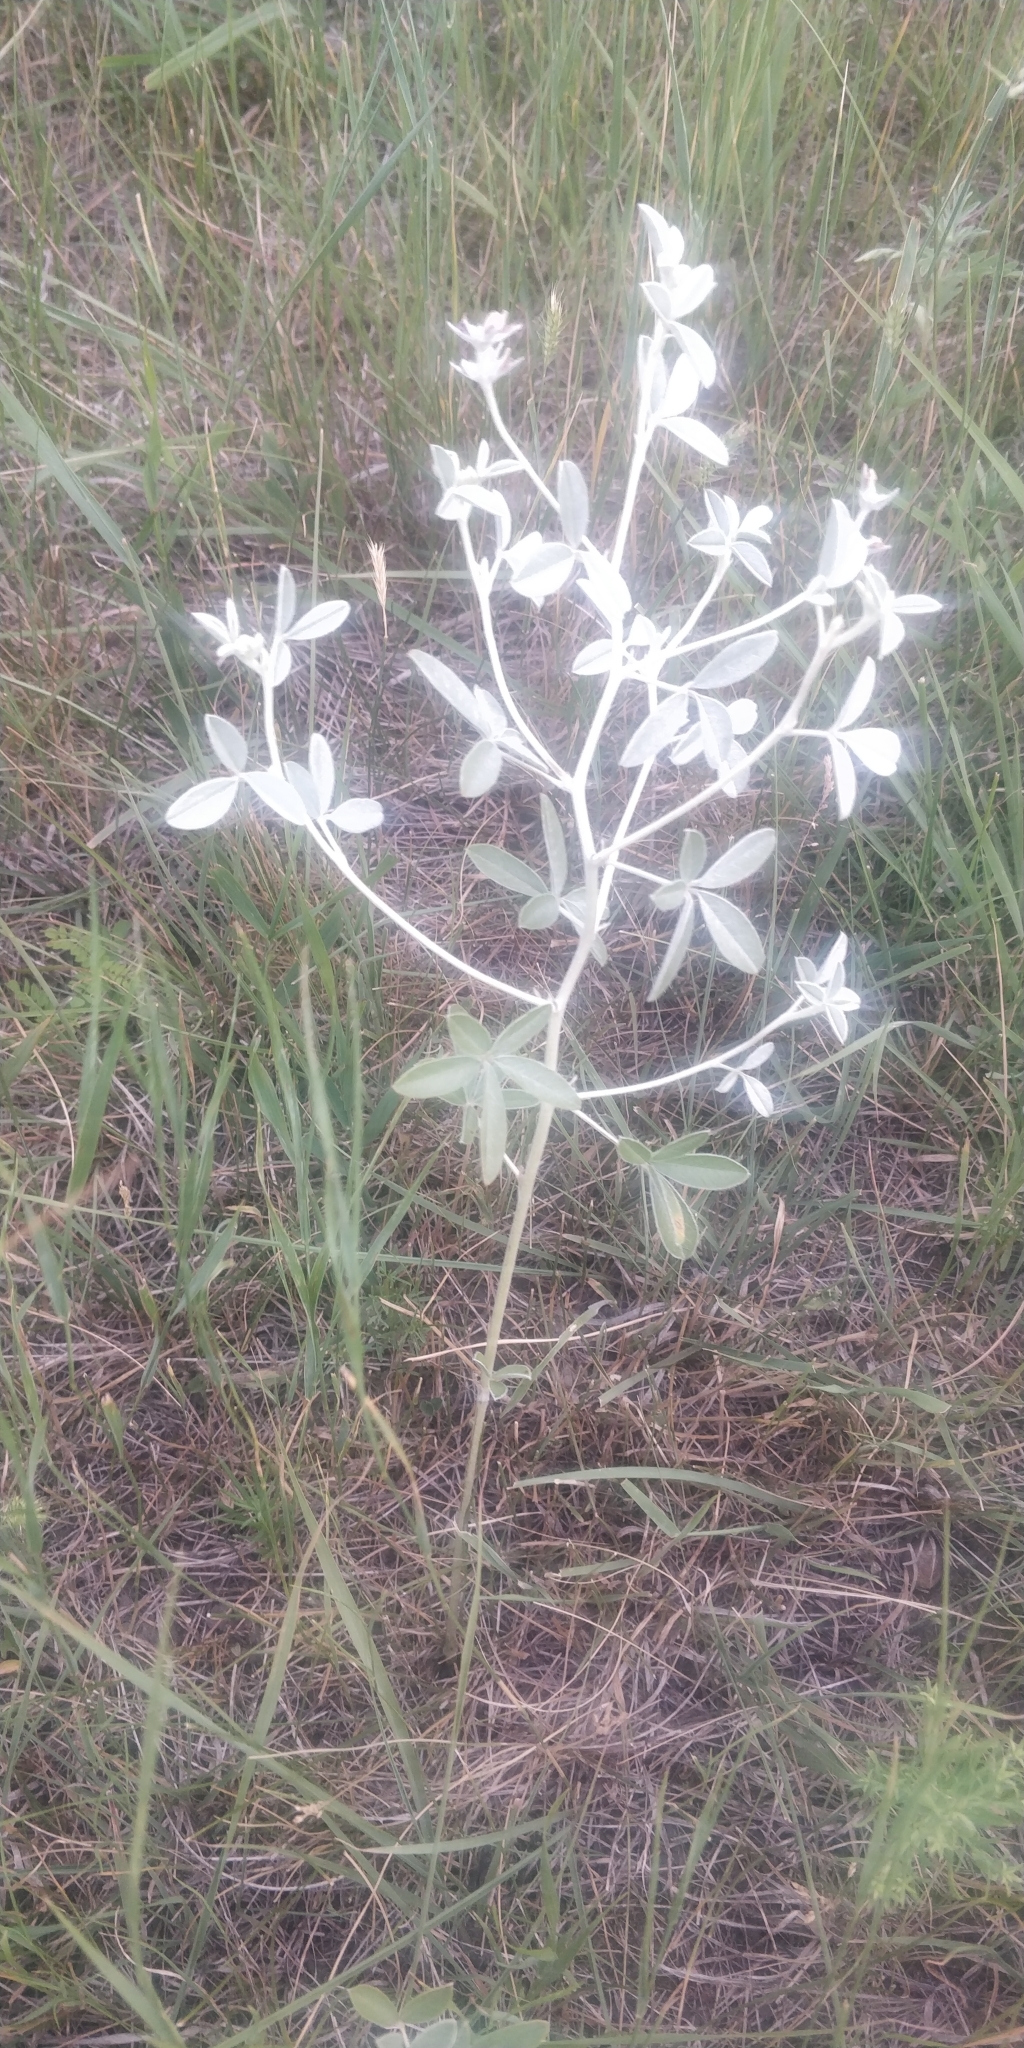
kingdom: Plantae
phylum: Tracheophyta
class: Magnoliopsida
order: Fabales
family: Fabaceae
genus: Pediomelum
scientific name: Pediomelum argophyllum
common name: Silver-leaved indian breadroot
